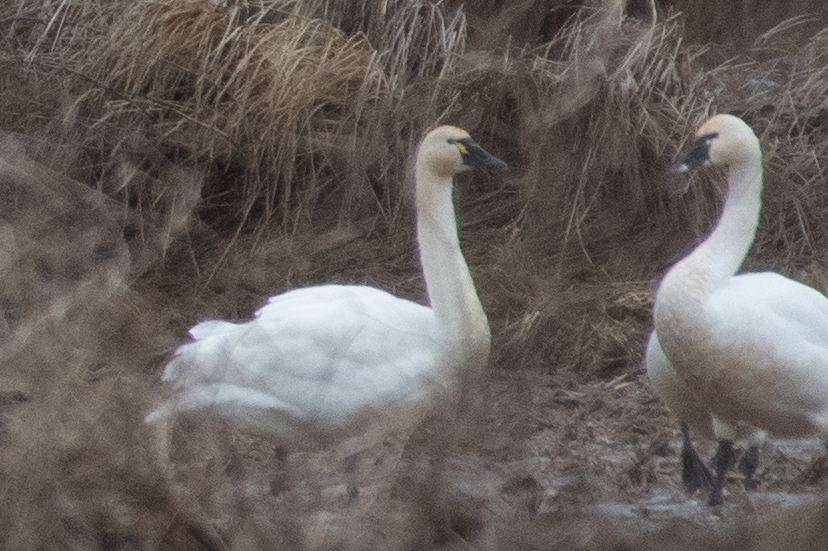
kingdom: Animalia
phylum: Chordata
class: Aves
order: Anseriformes
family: Anatidae
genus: Cygnus
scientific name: Cygnus columbianus
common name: Tundra swan
